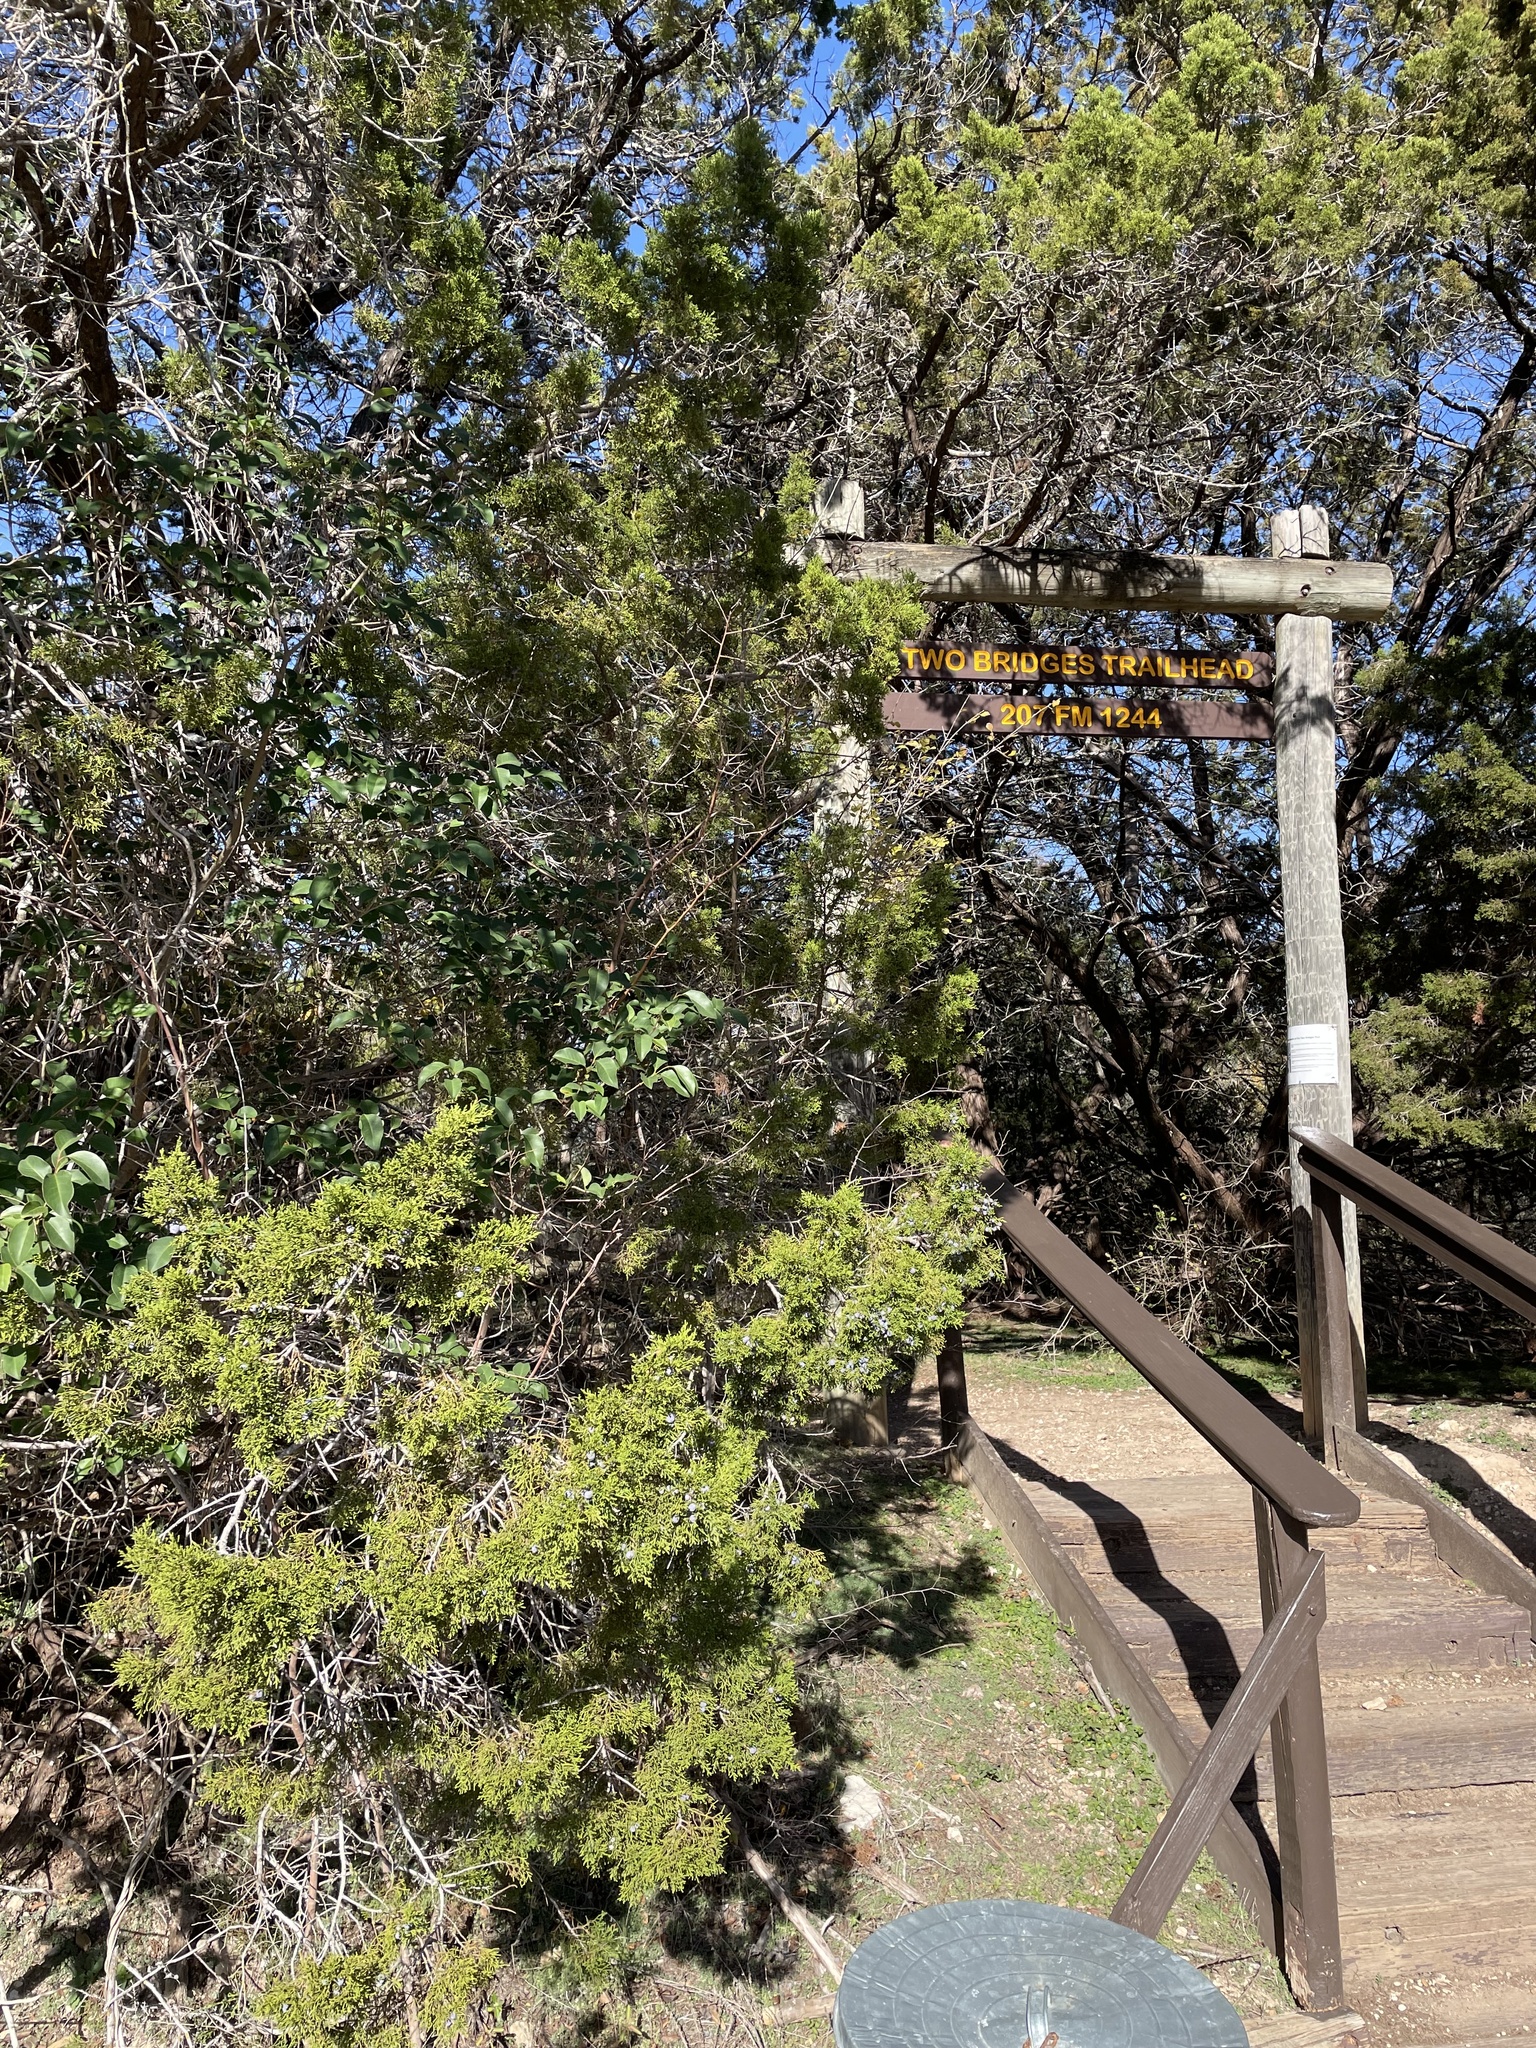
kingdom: Plantae
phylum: Tracheophyta
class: Magnoliopsida
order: Lamiales
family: Oleaceae
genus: Ligustrum
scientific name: Ligustrum lucidum
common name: Glossy privet
